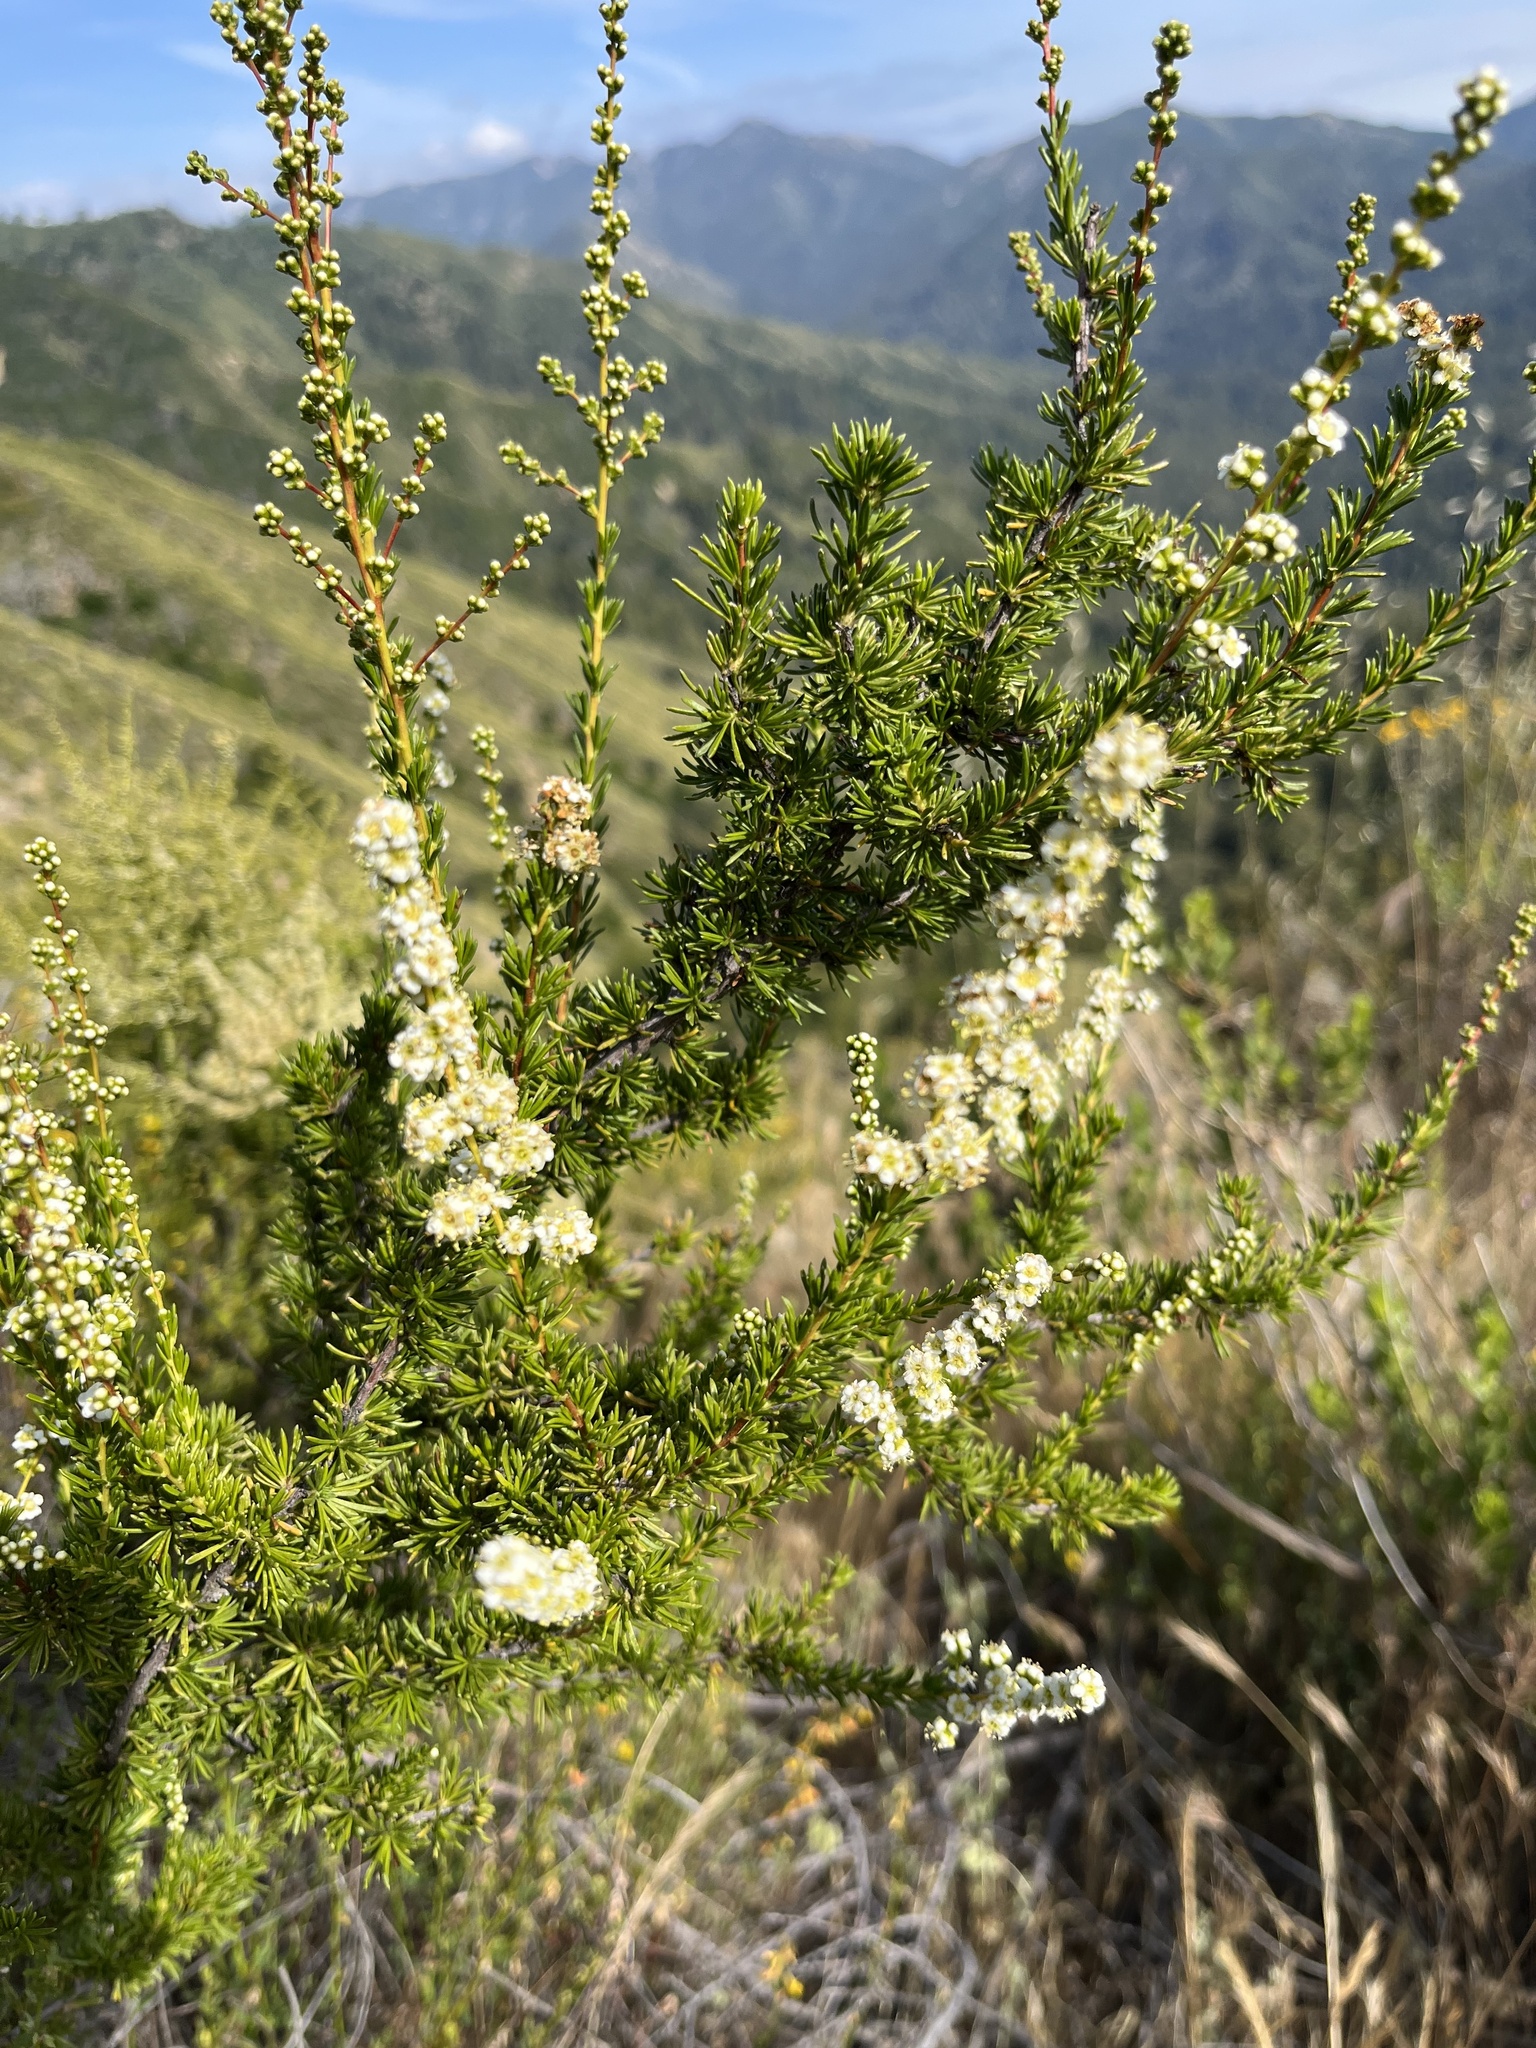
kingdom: Plantae
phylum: Tracheophyta
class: Magnoliopsida
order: Rosales
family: Rosaceae
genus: Adenostoma
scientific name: Adenostoma fasciculatum
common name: Chamise
